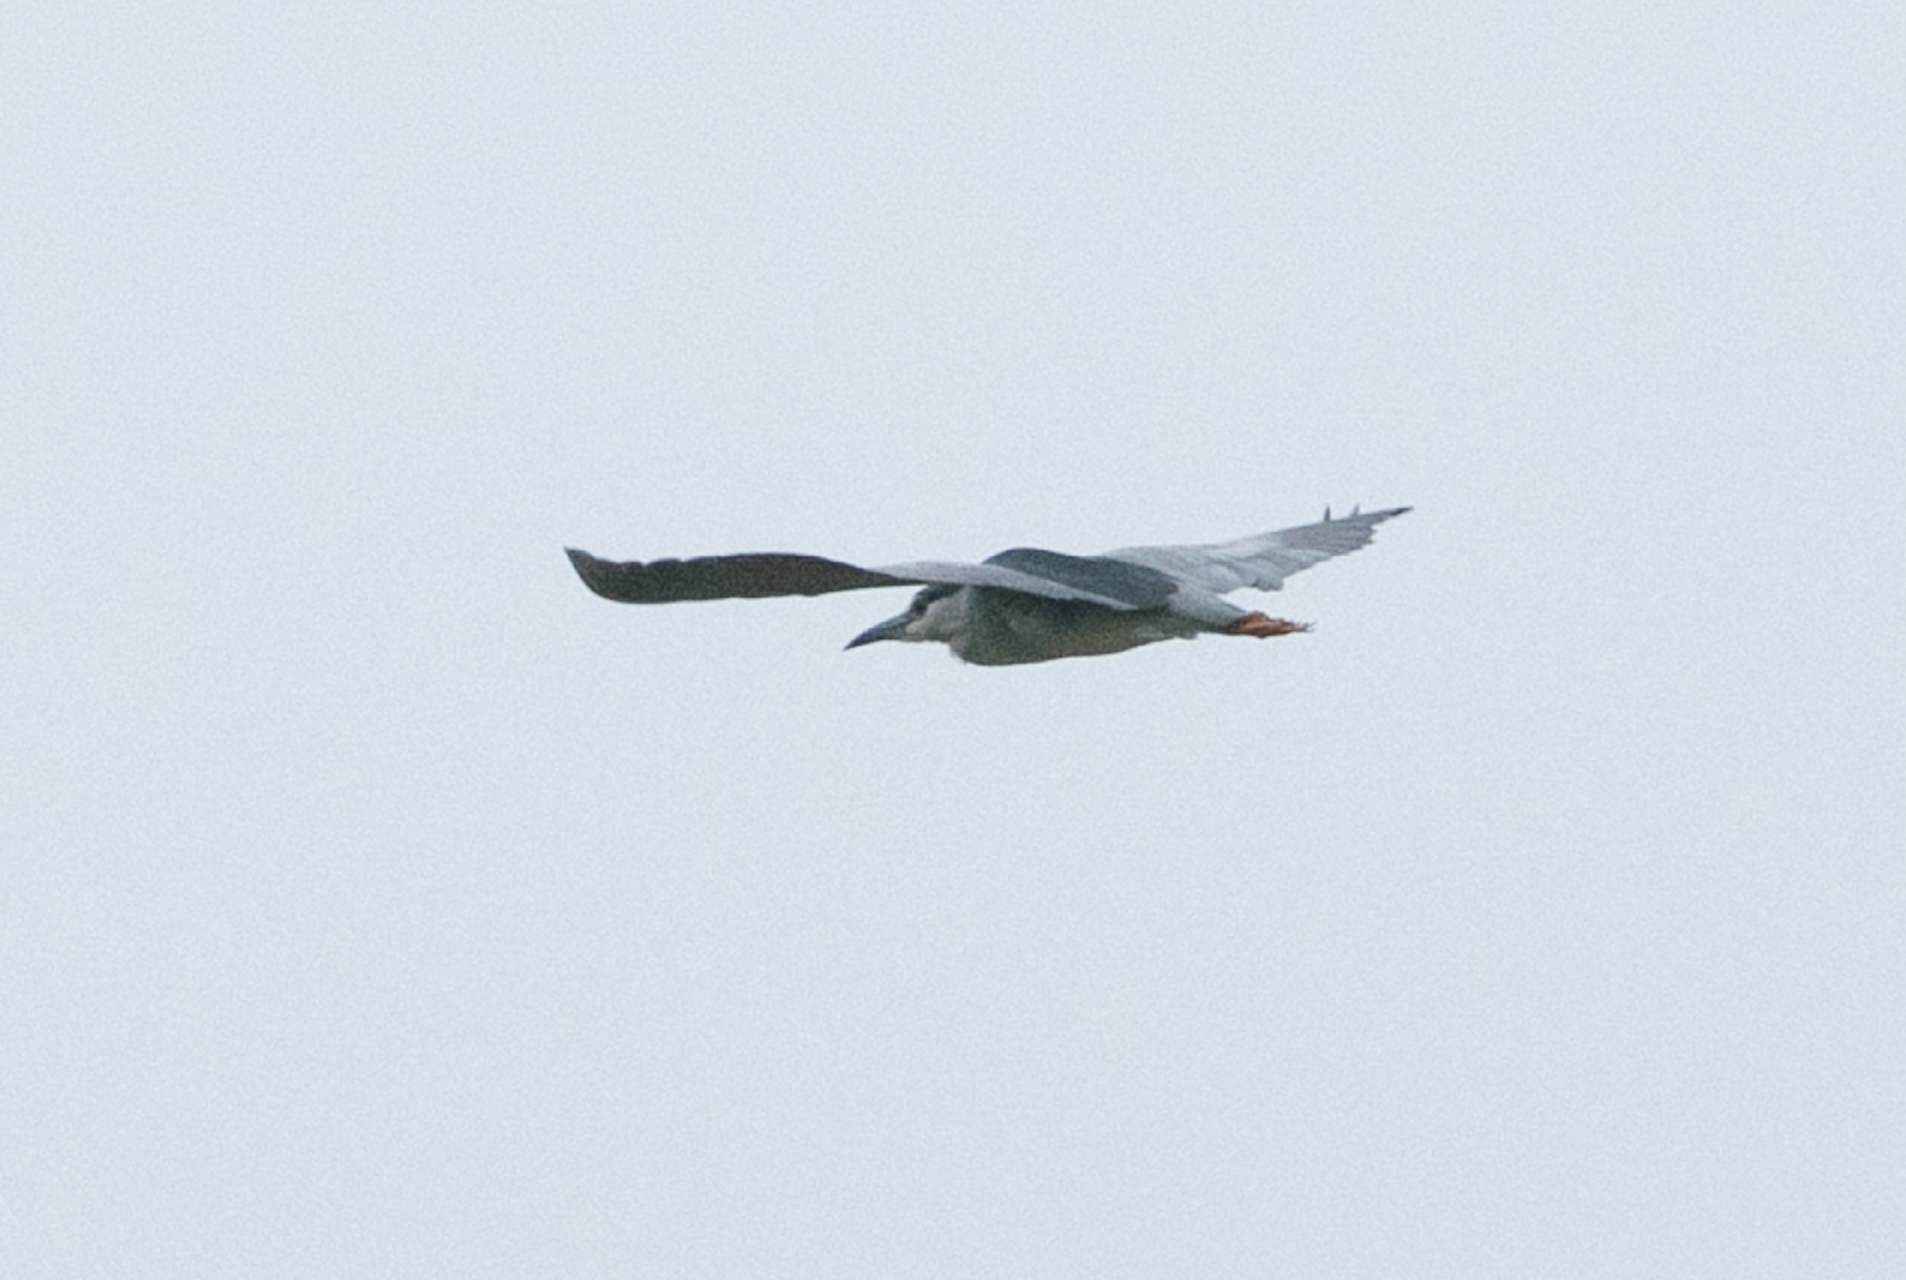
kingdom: Animalia
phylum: Chordata
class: Aves
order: Pelecaniformes
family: Ardeidae
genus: Nycticorax
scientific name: Nycticorax nycticorax
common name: Black-crowned night heron
